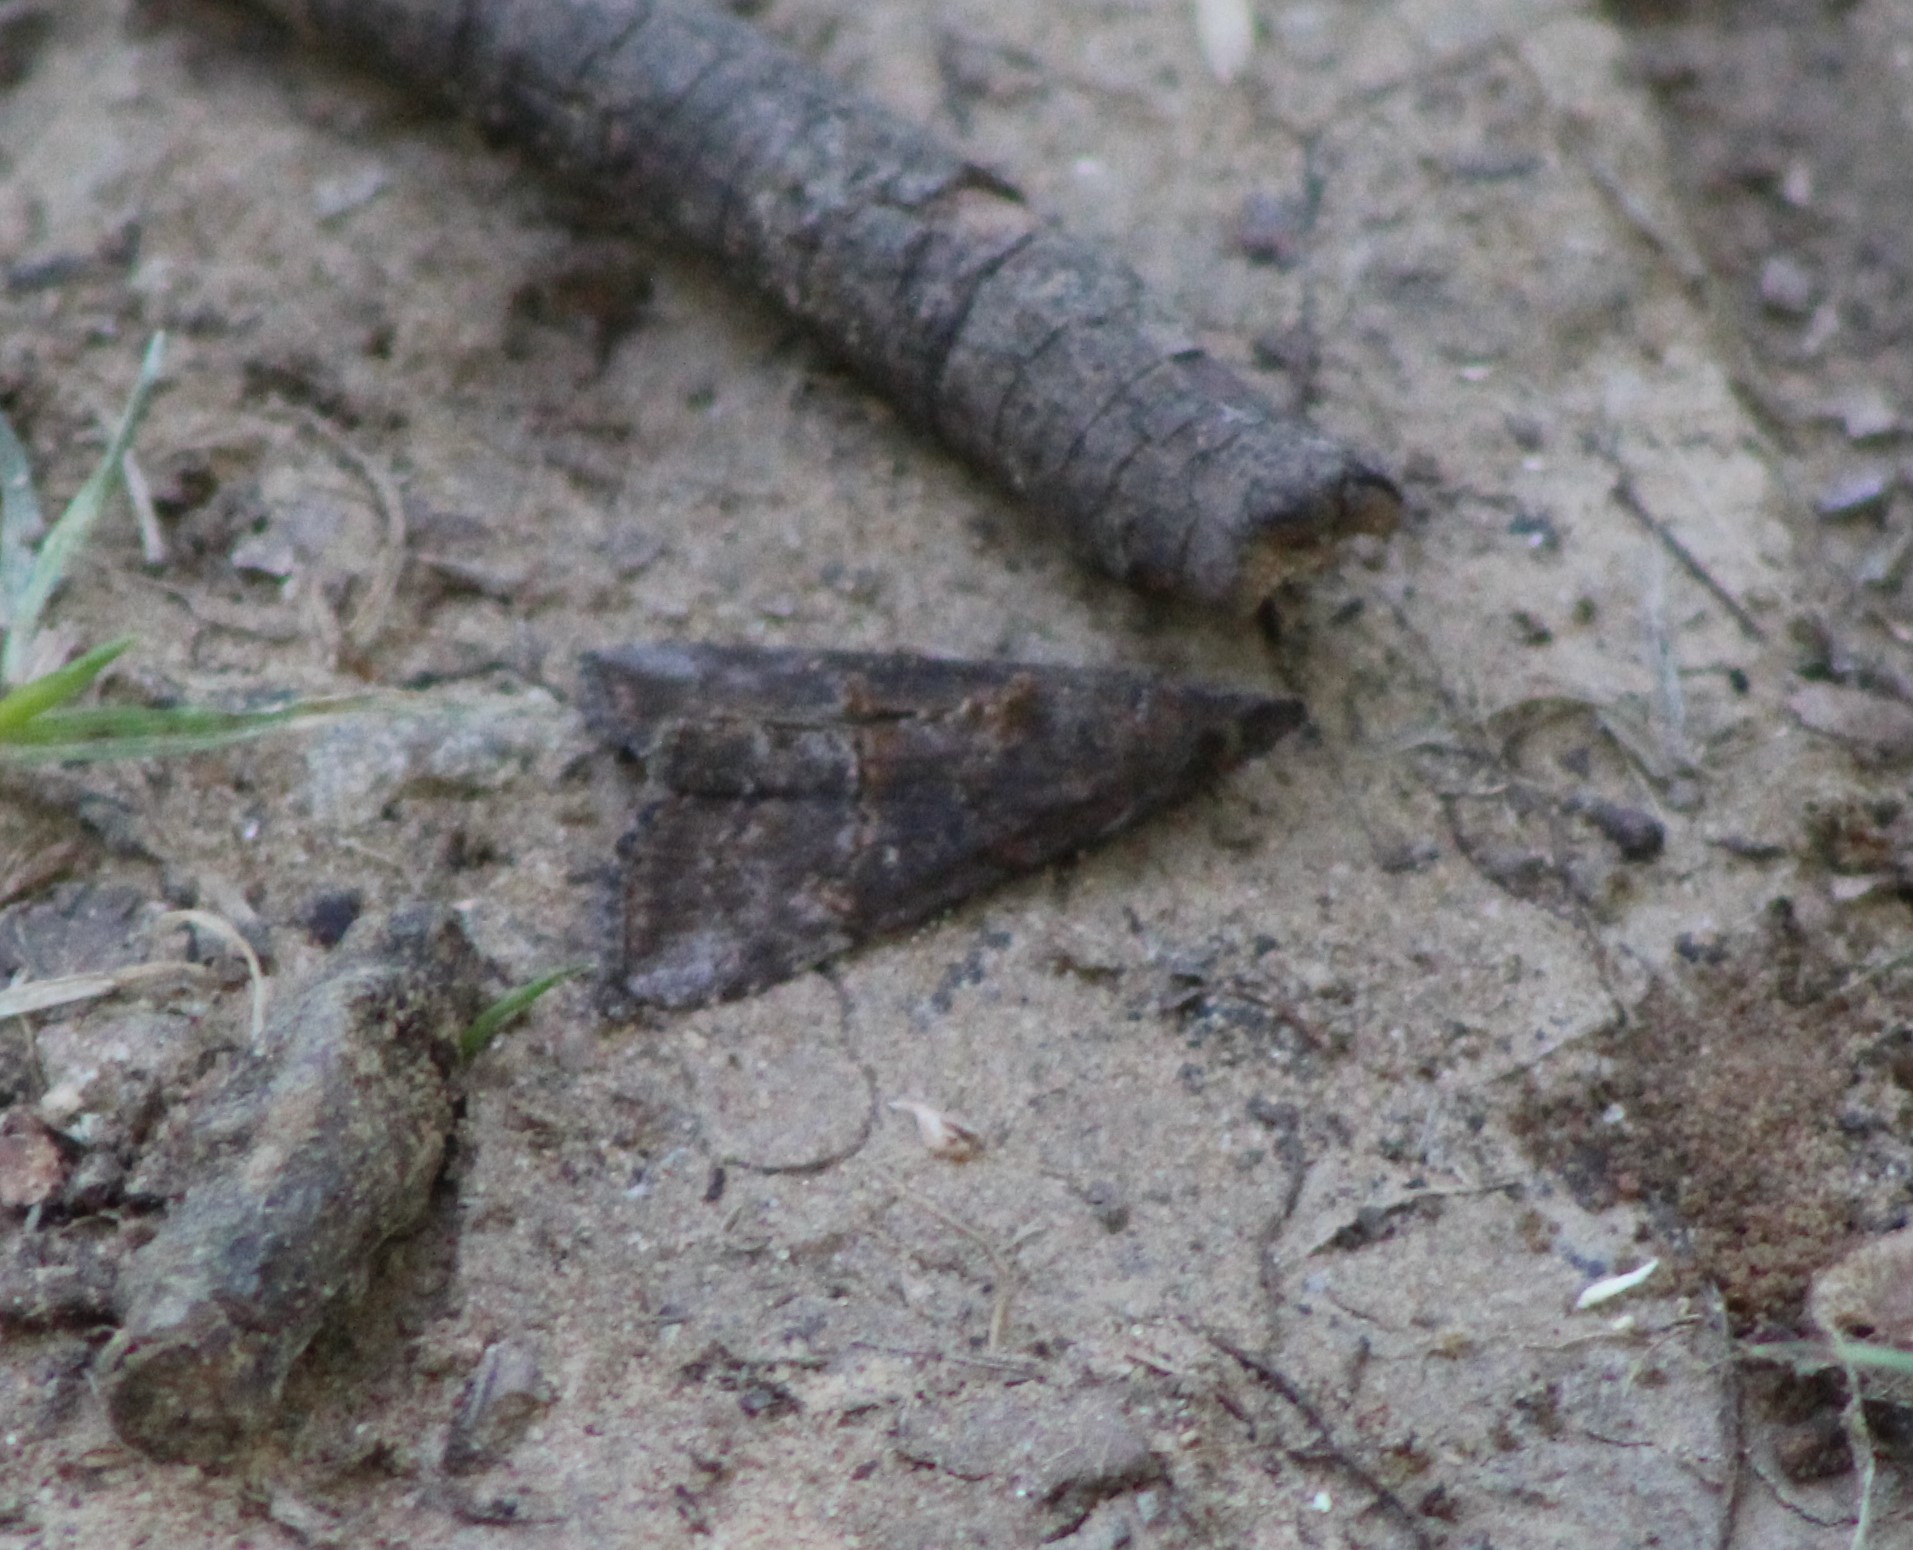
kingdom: Animalia
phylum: Arthropoda
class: Insecta
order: Lepidoptera
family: Erebidae
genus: Hypena
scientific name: Hypena scabra
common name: Green cloverworm
